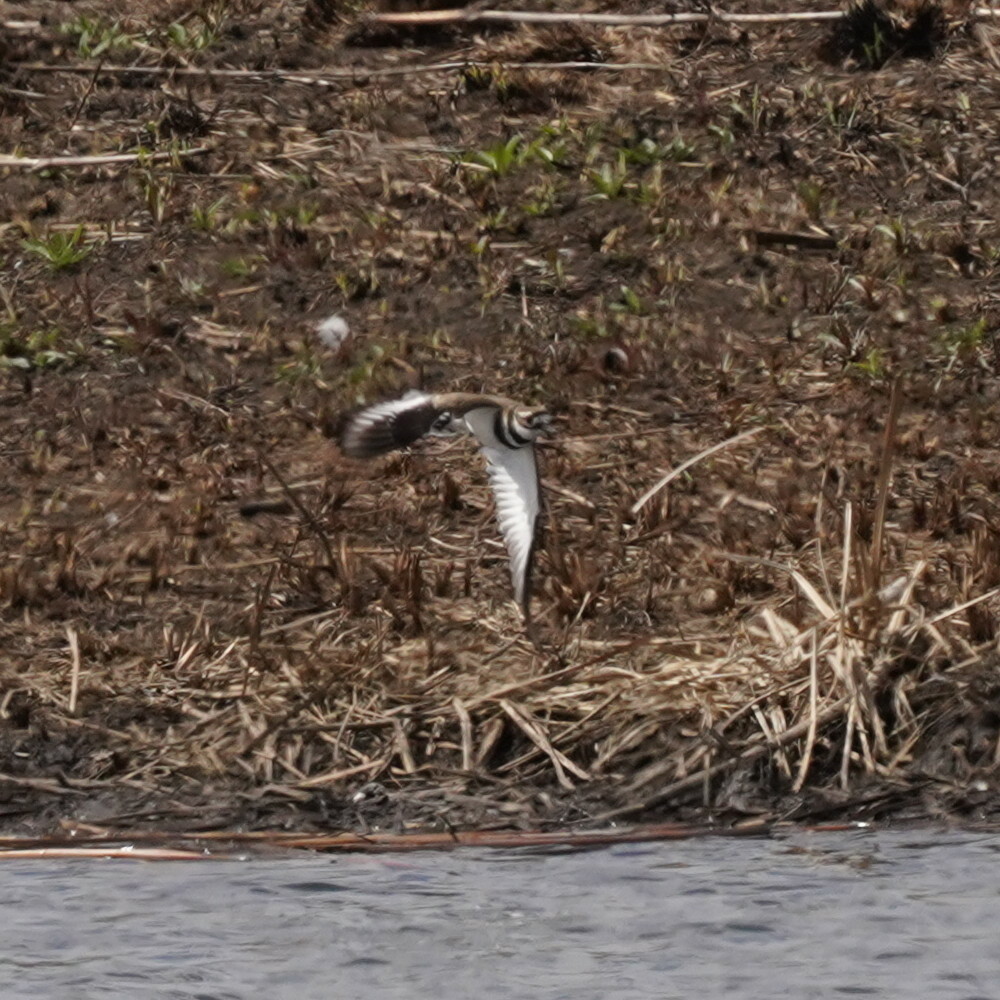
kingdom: Animalia
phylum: Chordata
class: Aves
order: Charadriiformes
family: Charadriidae
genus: Charadrius
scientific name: Charadrius vociferus
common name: Killdeer
